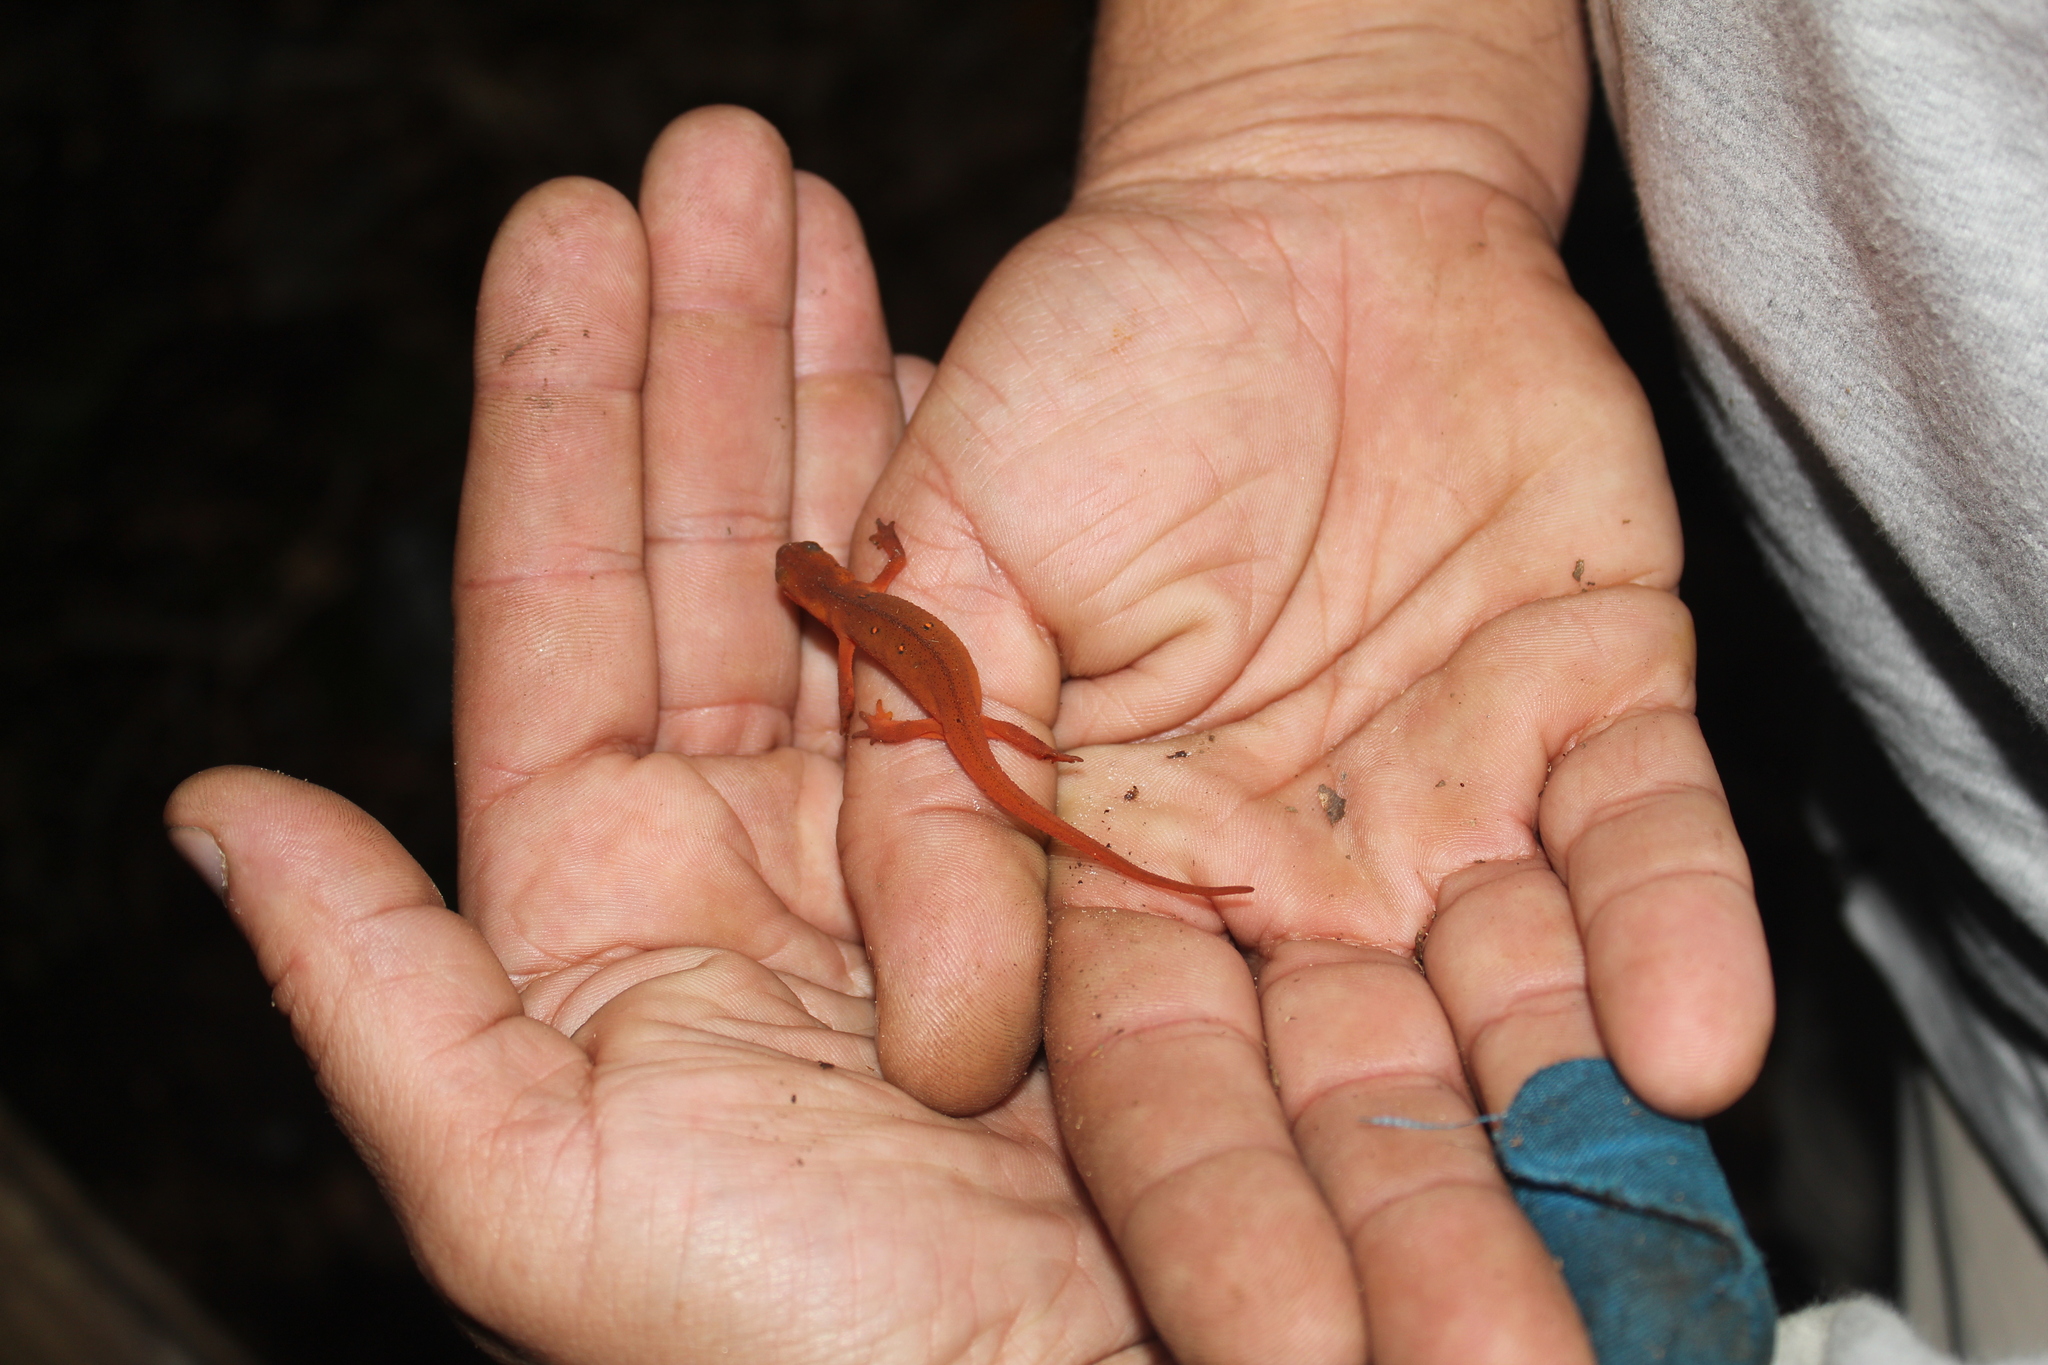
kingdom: Animalia
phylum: Chordata
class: Amphibia
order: Caudata
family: Salamandridae
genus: Notophthalmus
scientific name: Notophthalmus viridescens
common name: Eastern newt
